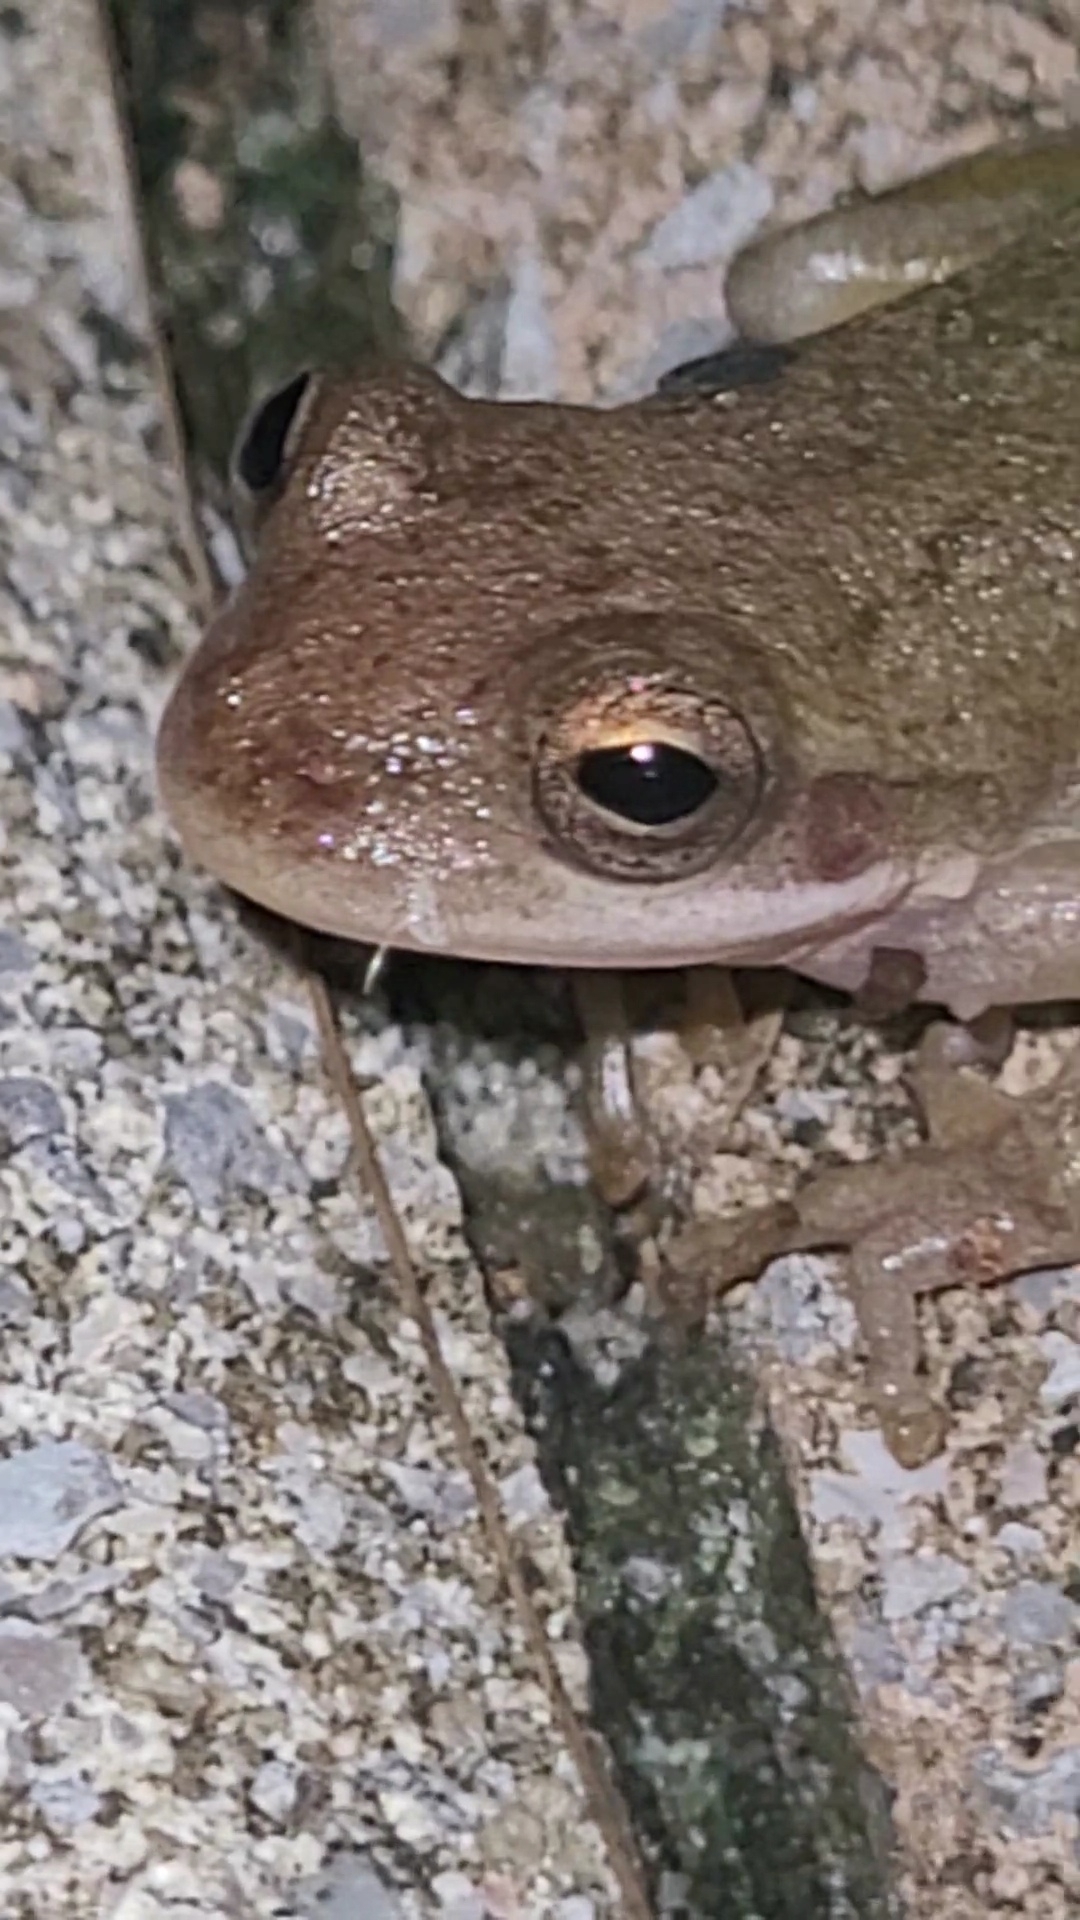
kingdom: Animalia
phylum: Chordata
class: Amphibia
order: Anura
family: Hylidae
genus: Dryophytes
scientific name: Dryophytes squirellus
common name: Squirrel treefrog
